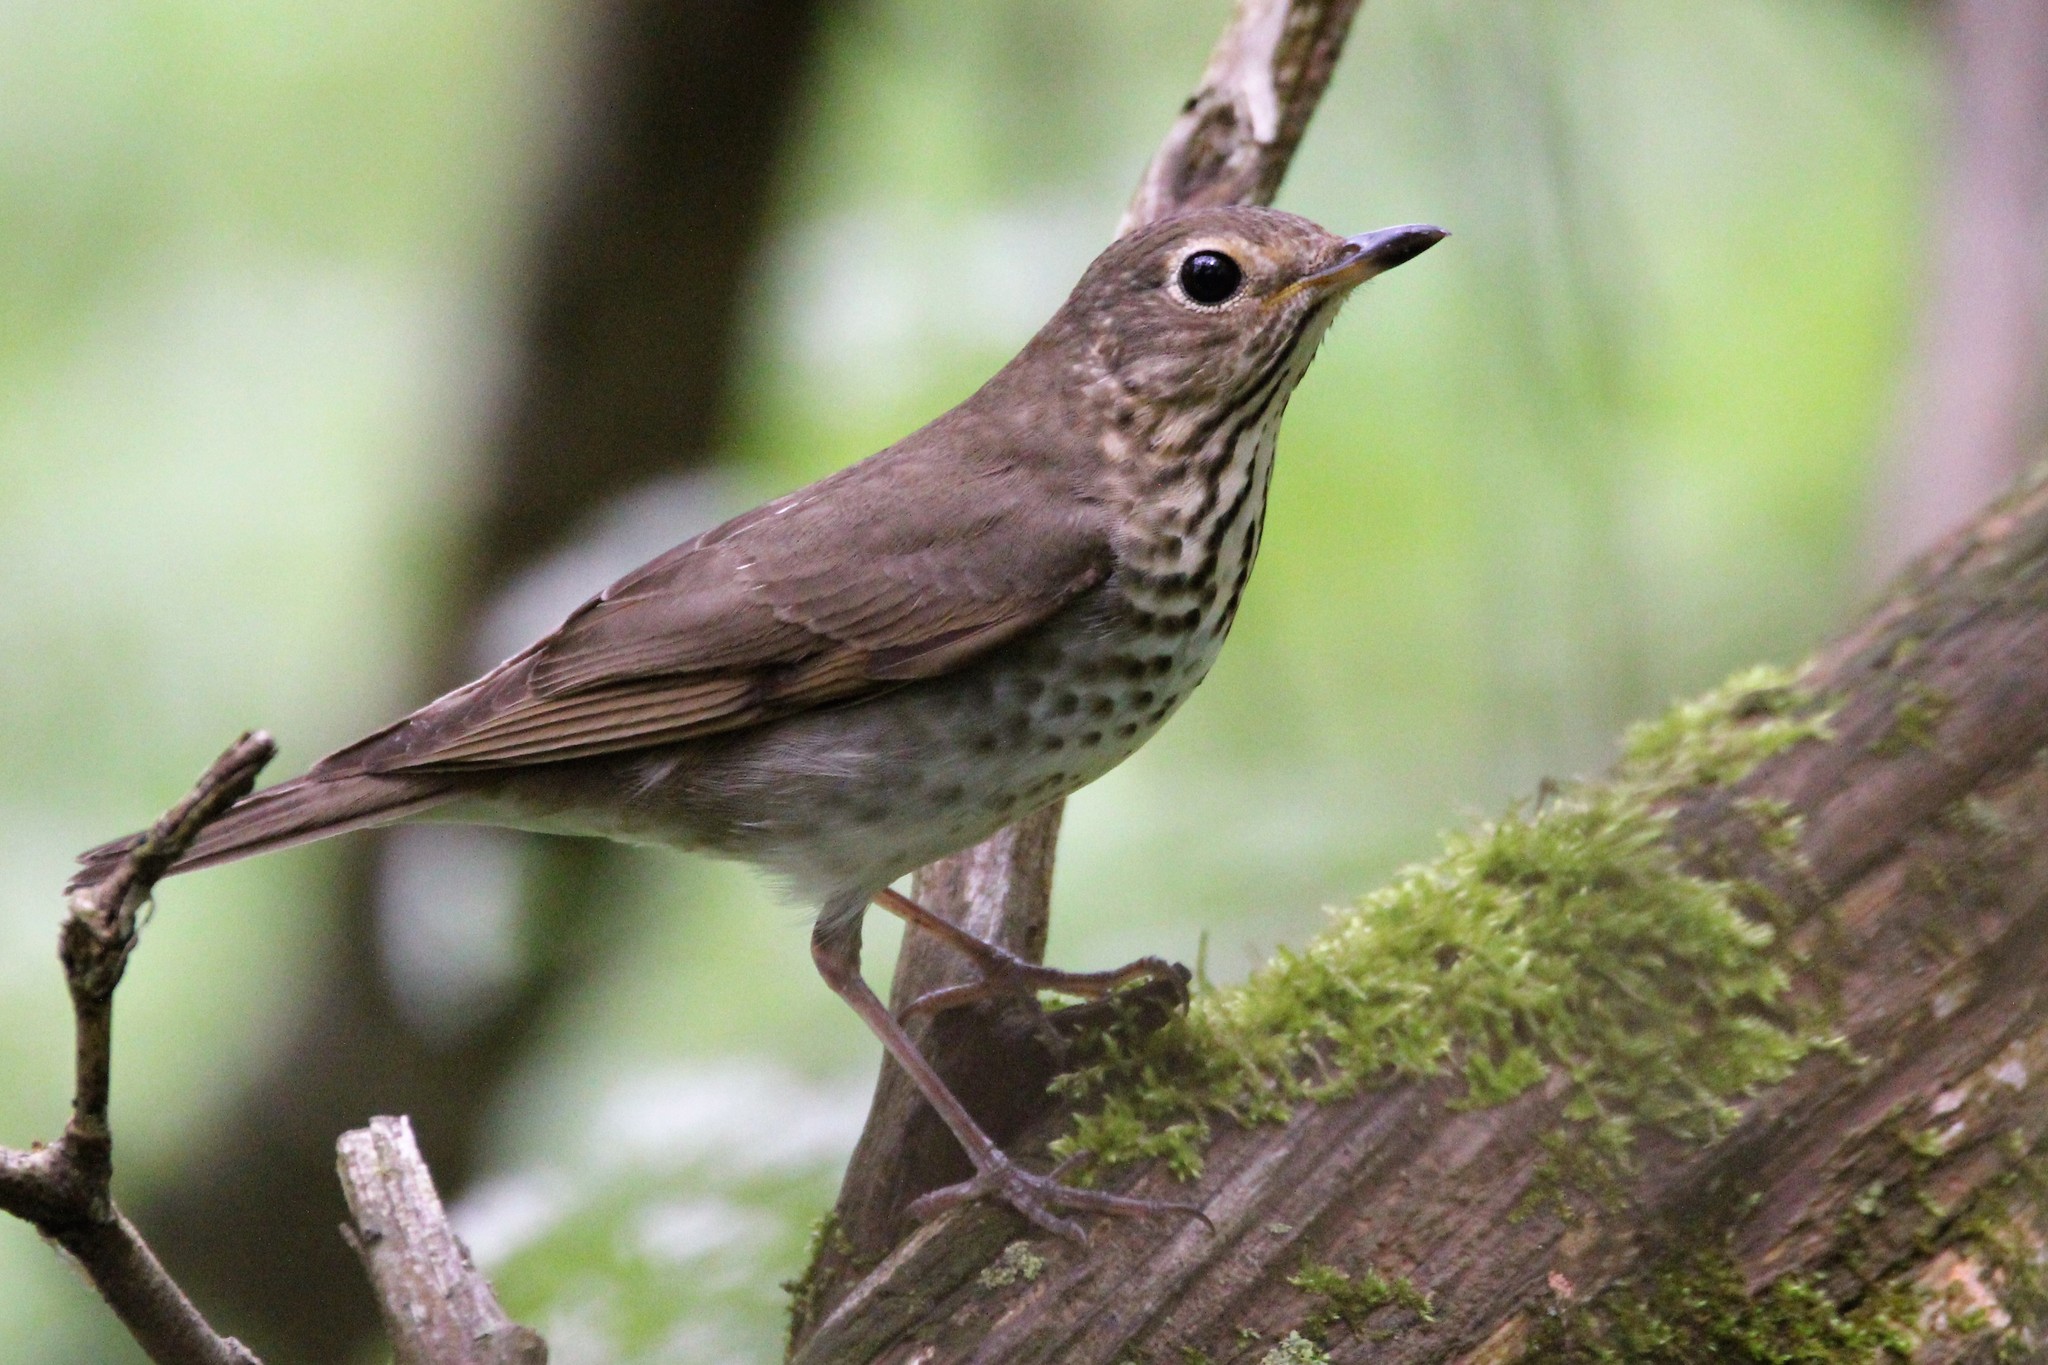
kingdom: Animalia
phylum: Chordata
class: Aves
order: Passeriformes
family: Turdidae
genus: Catharus
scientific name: Catharus ustulatus
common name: Swainson's thrush
